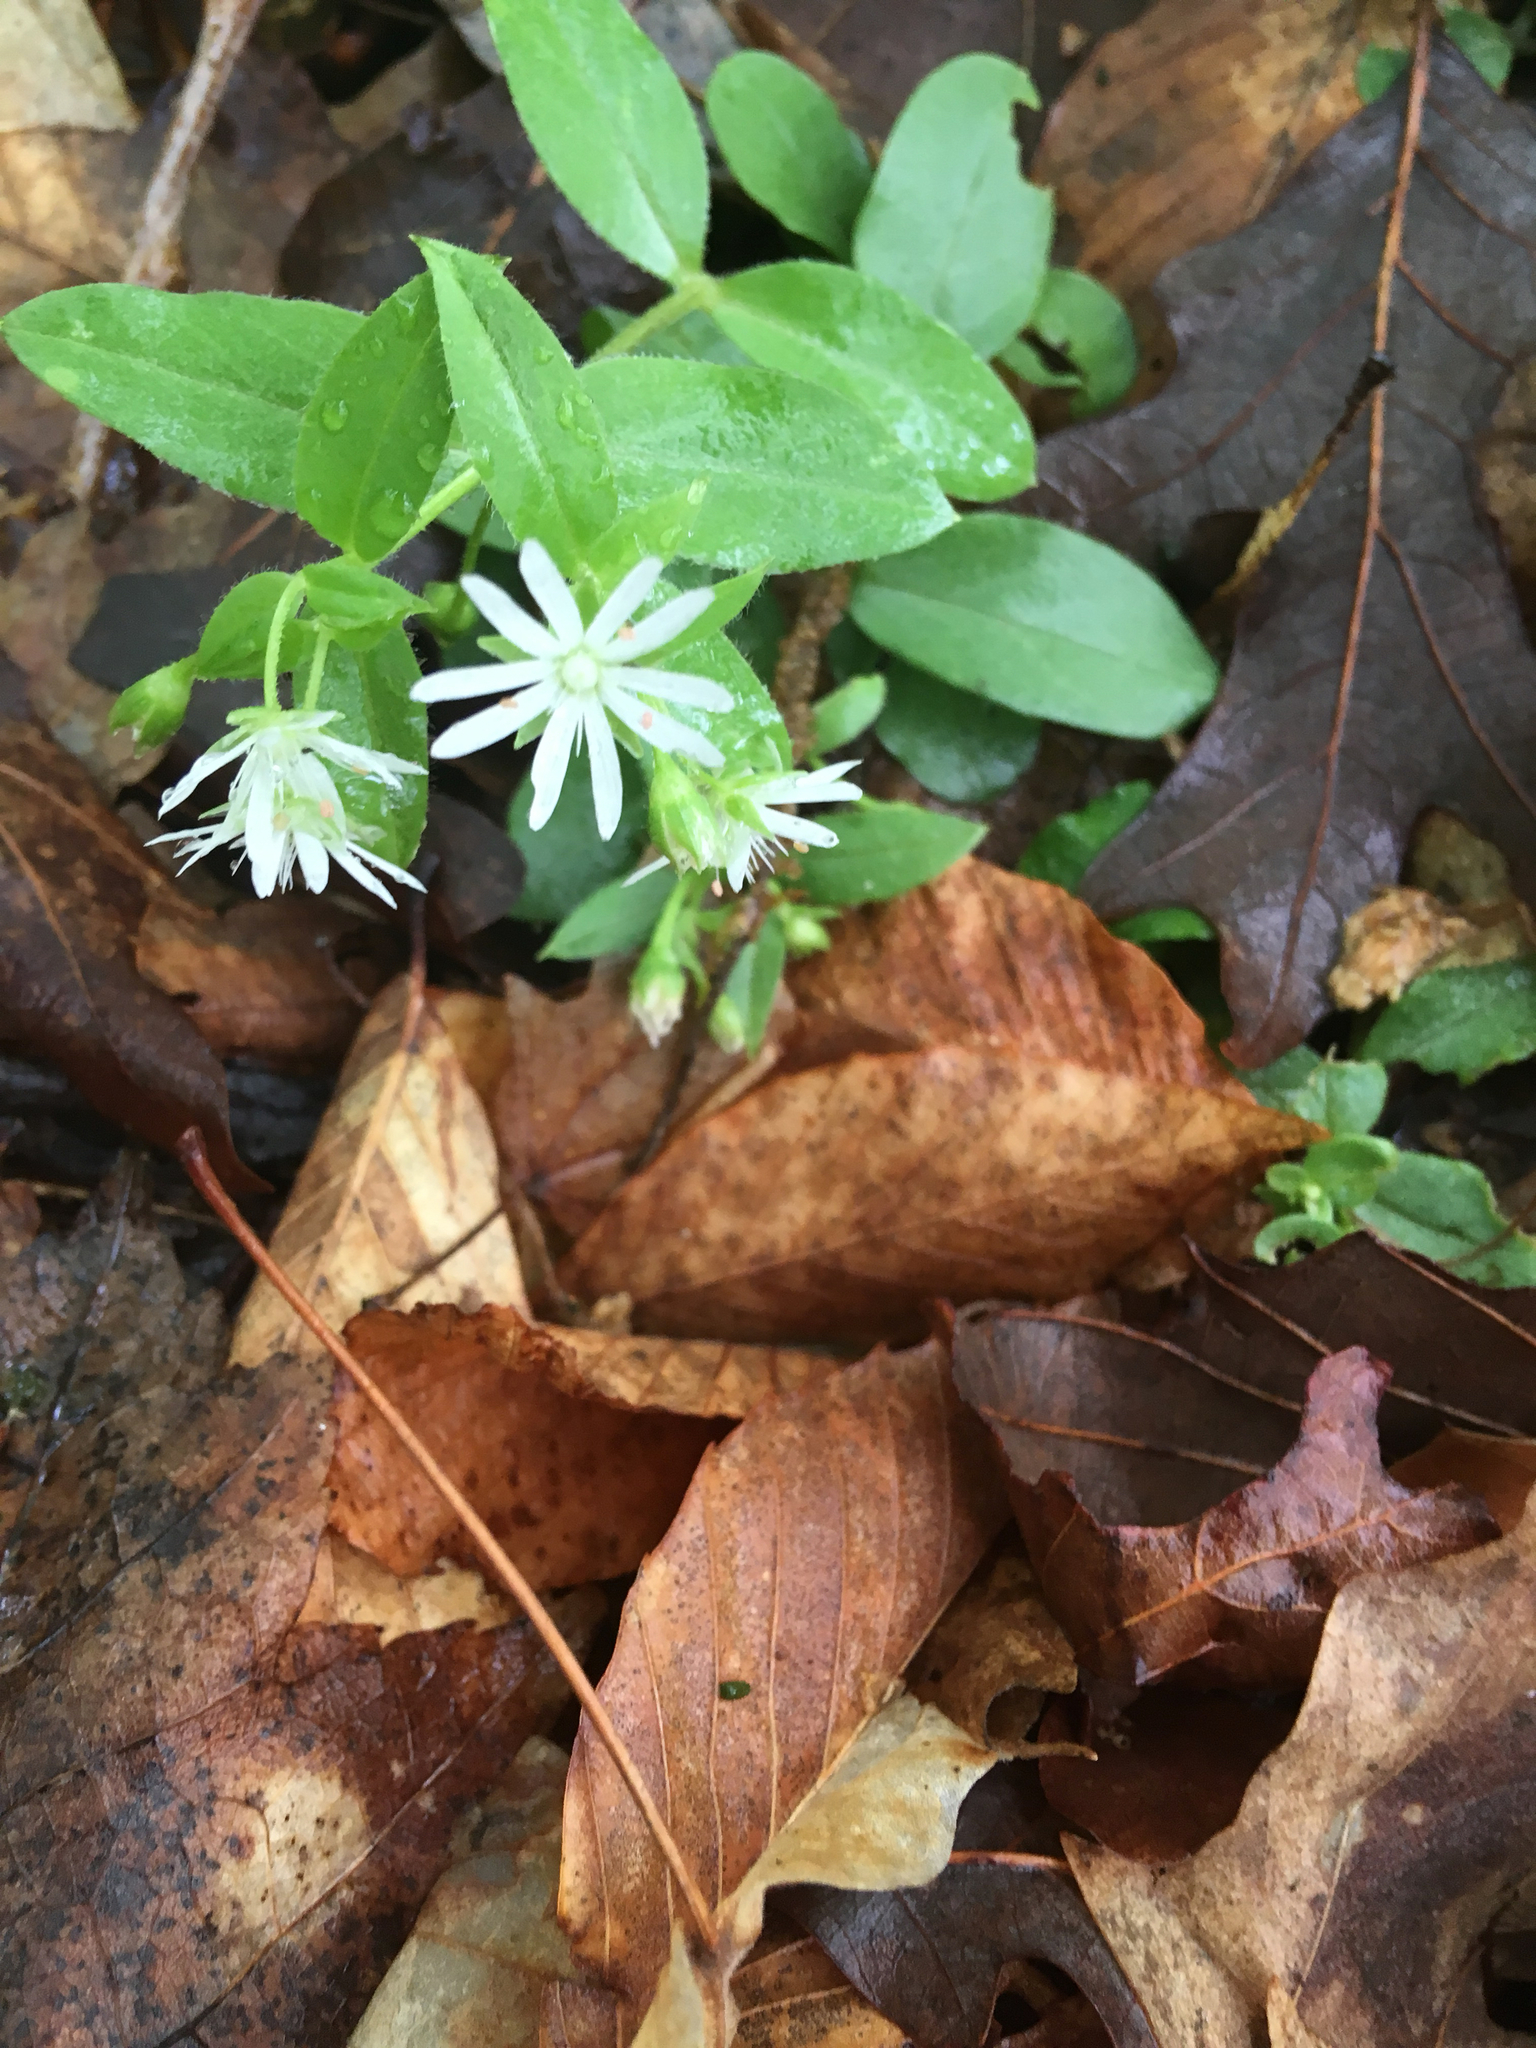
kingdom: Plantae
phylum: Tracheophyta
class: Magnoliopsida
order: Caryophyllales
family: Caryophyllaceae
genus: Stellaria
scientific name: Stellaria pubera
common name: Star chickweed
